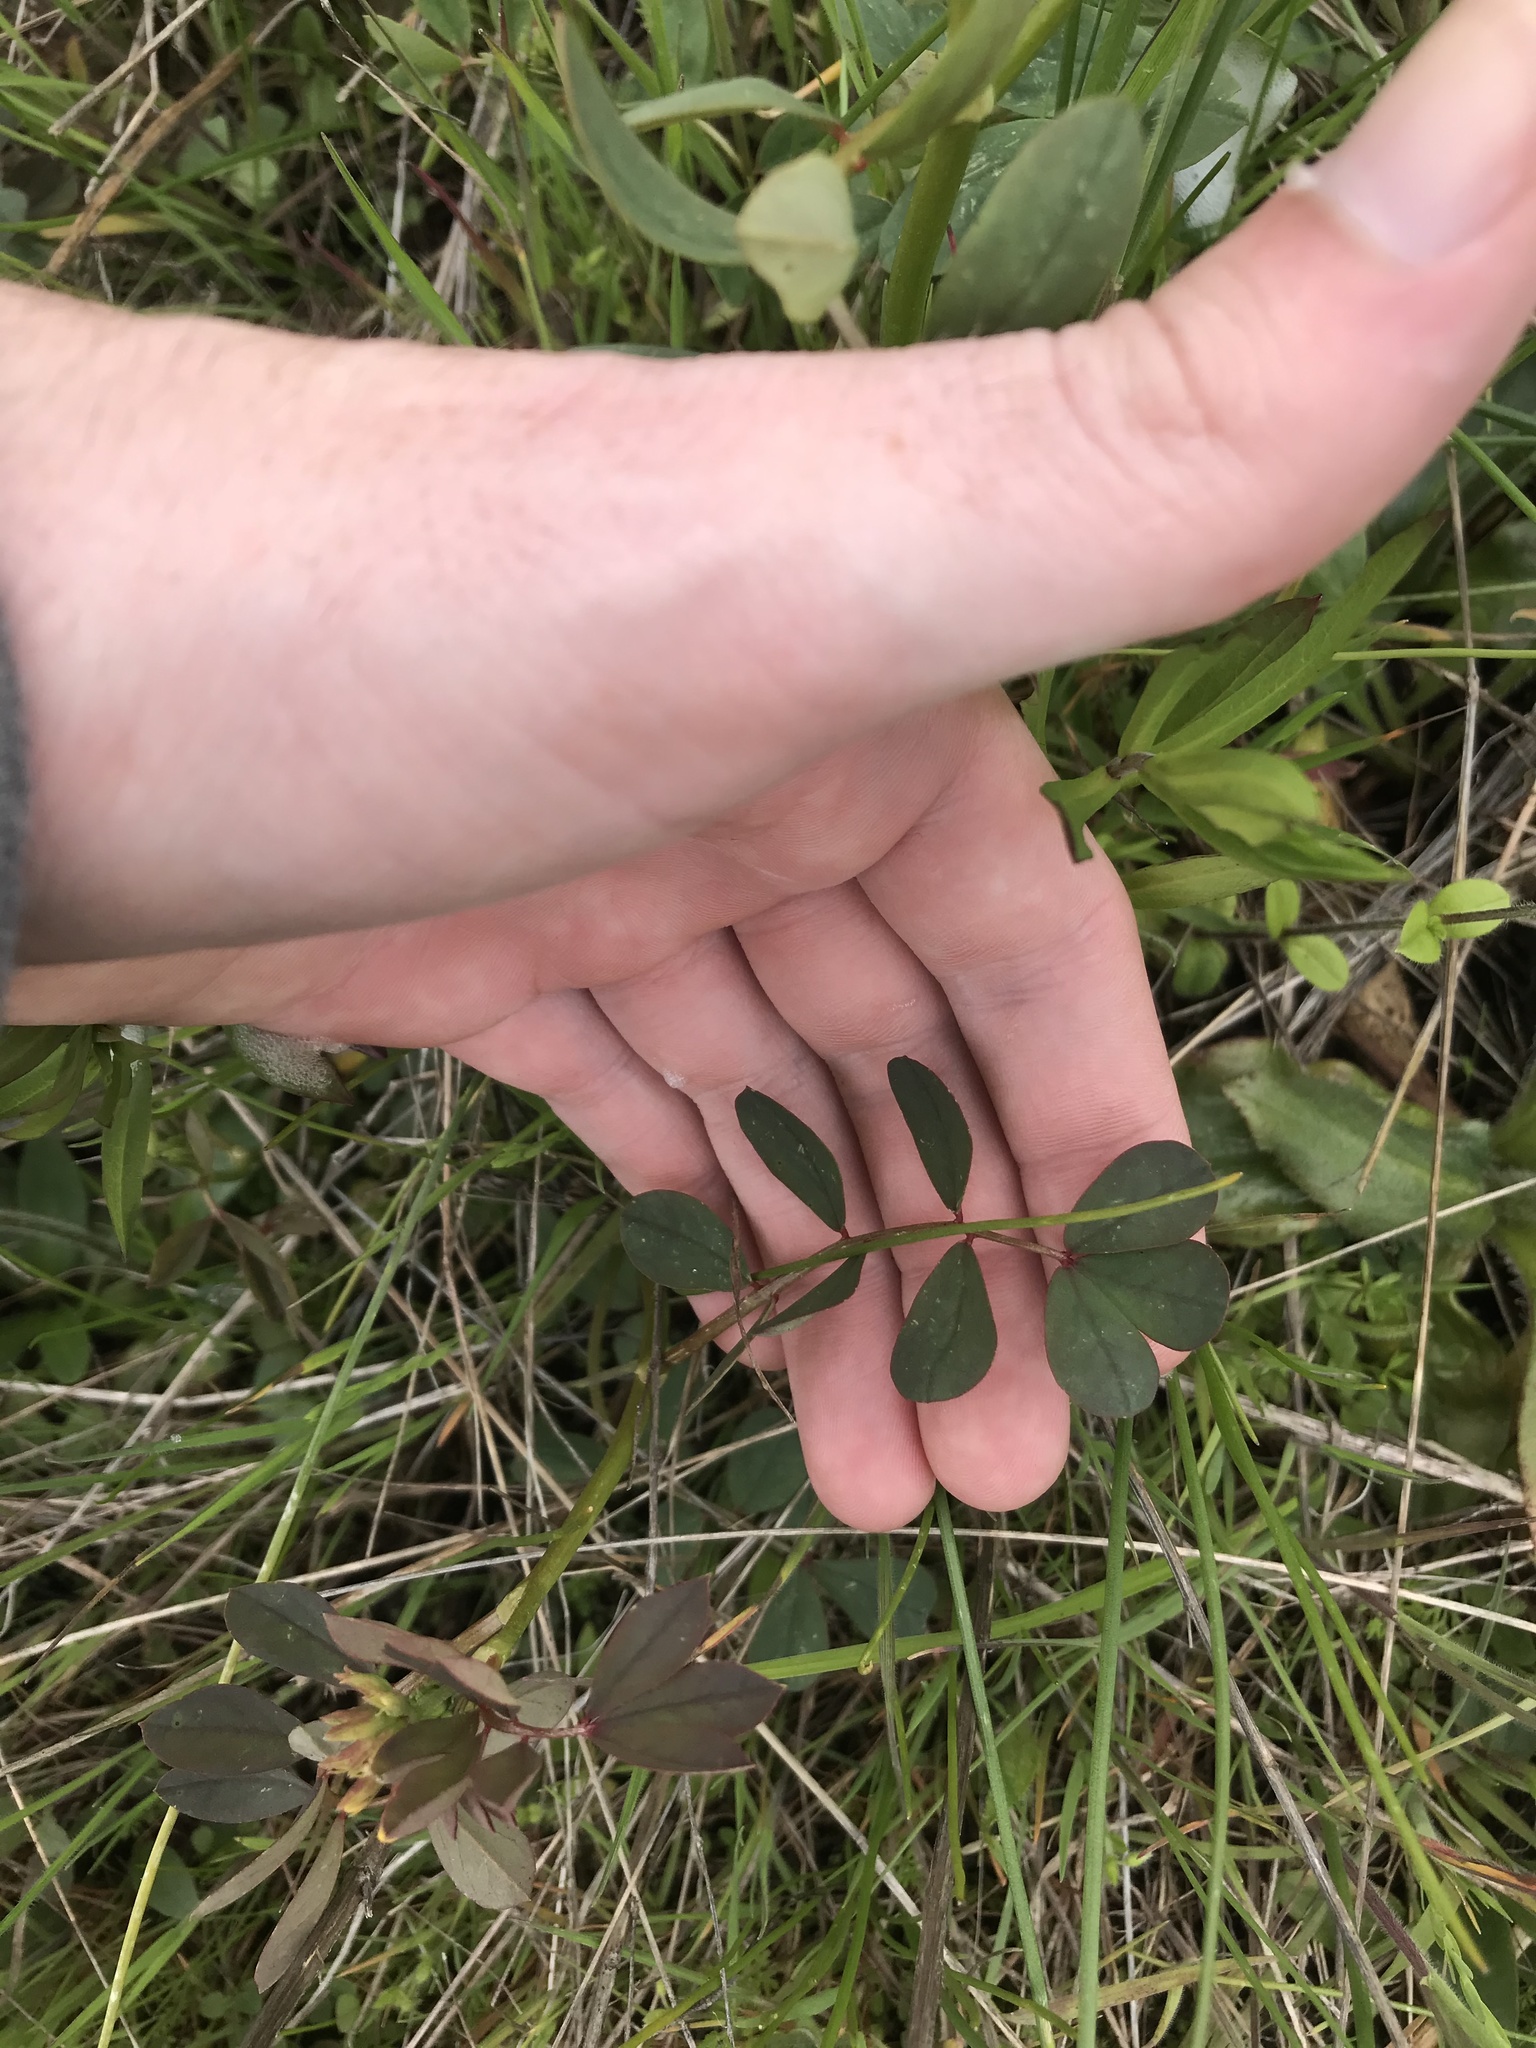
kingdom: Plantae
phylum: Tracheophyta
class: Magnoliopsida
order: Fabales
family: Fabaceae
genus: Hosackia
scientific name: Hosackia pinnata
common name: Bog bird's-foot trefoil
